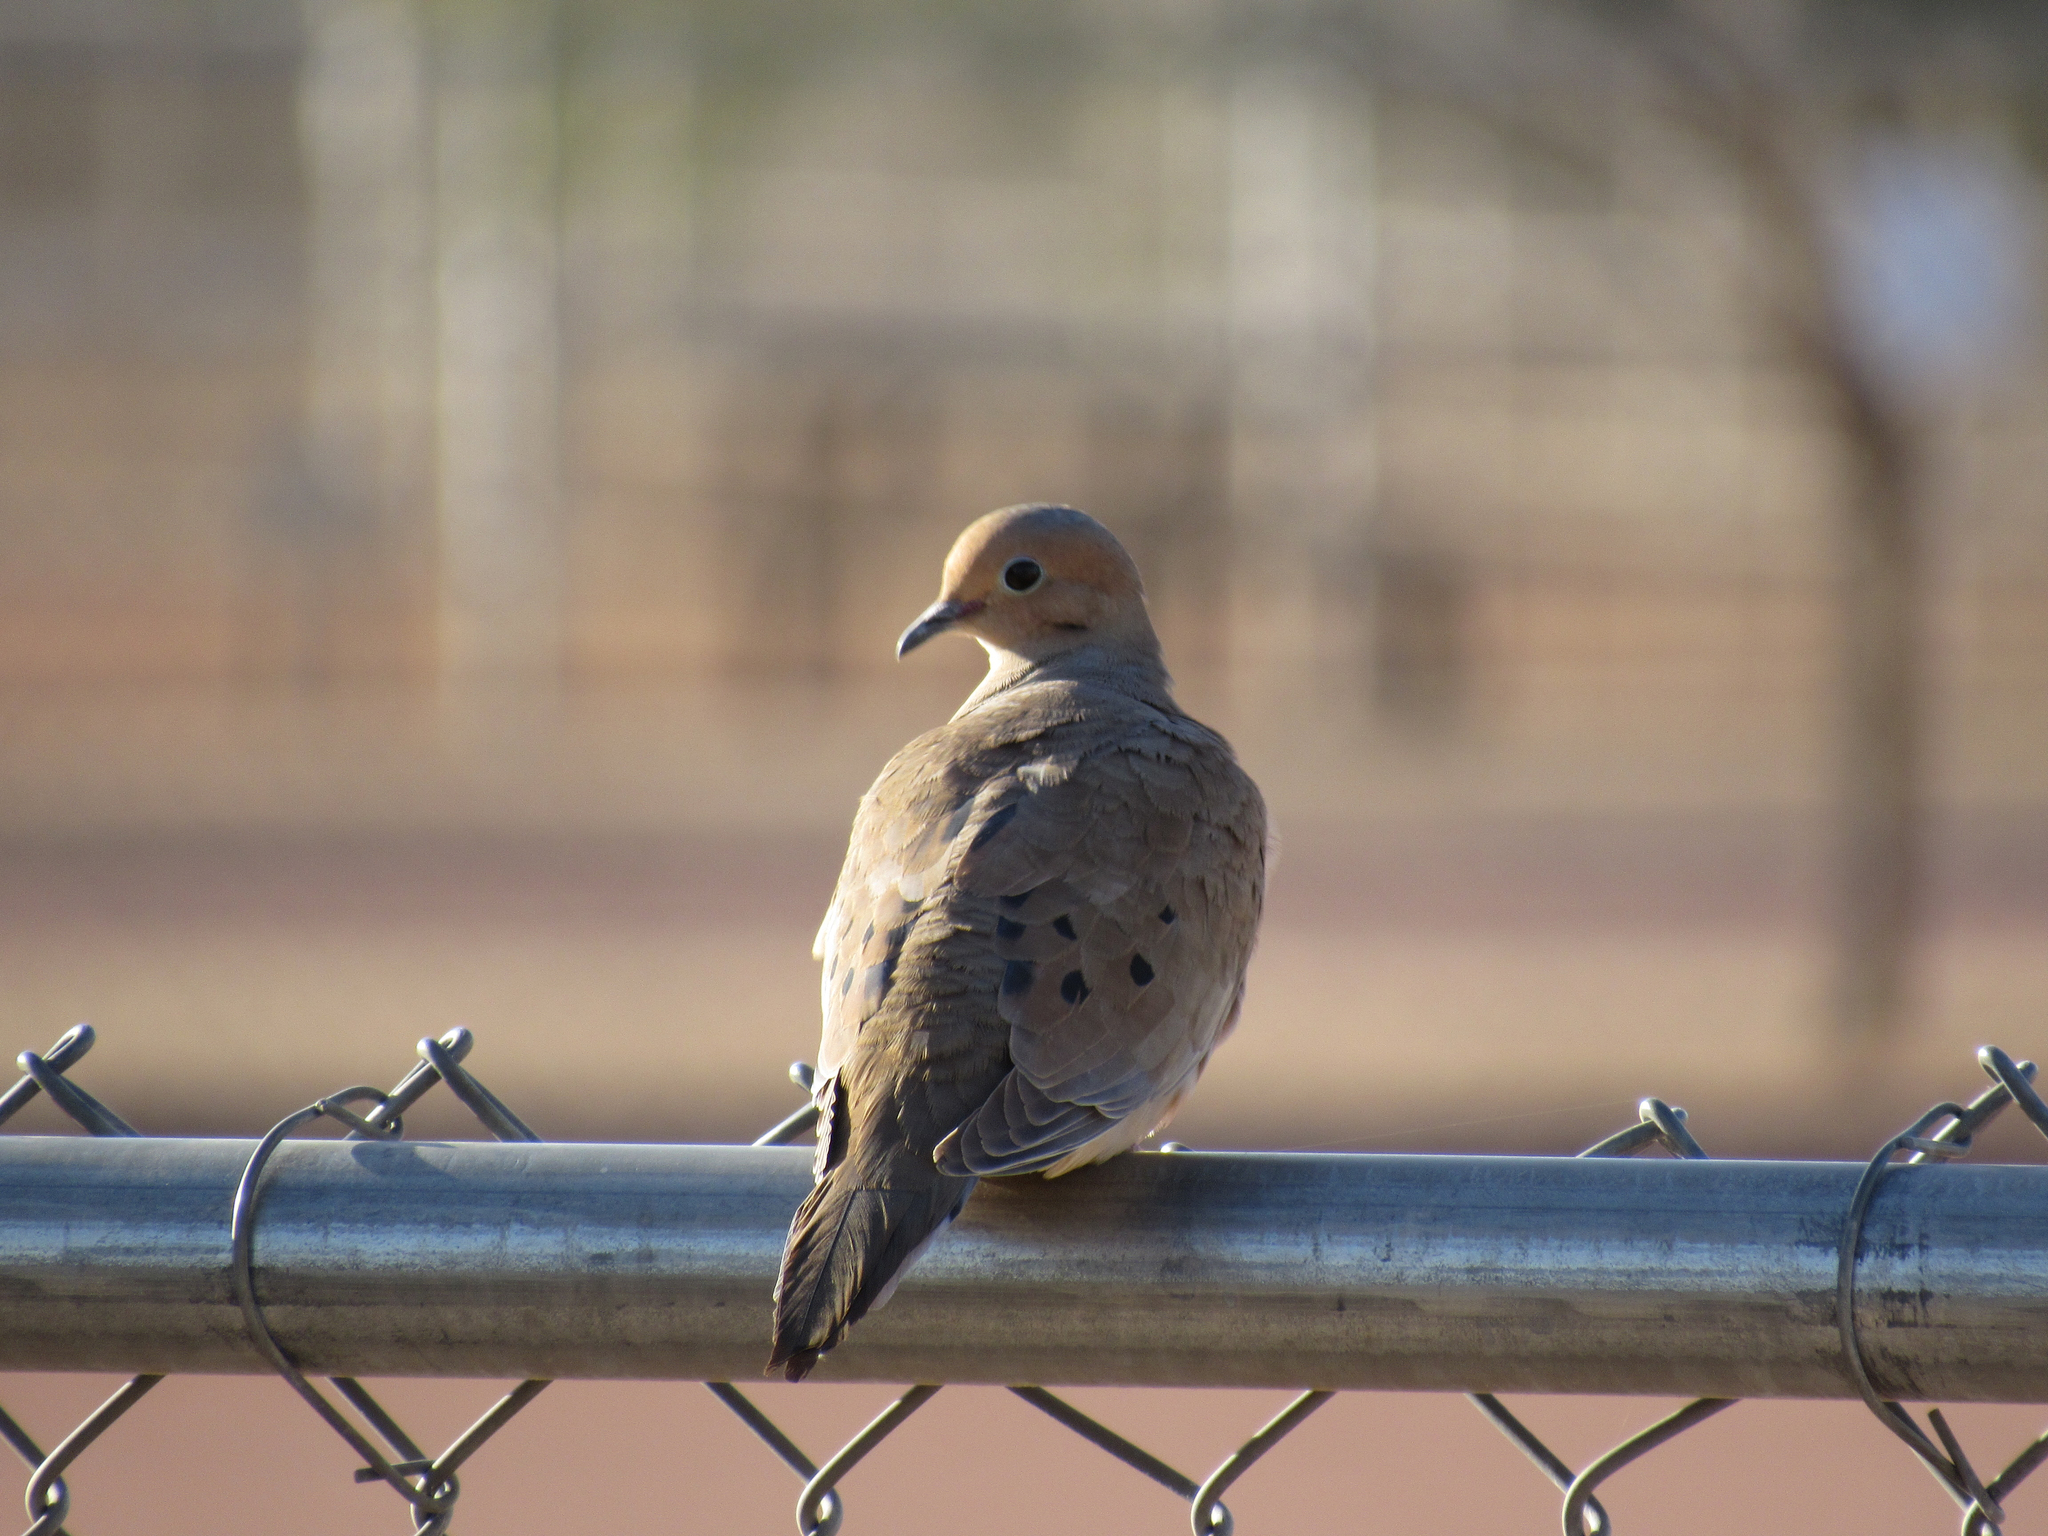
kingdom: Animalia
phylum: Chordata
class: Aves
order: Columbiformes
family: Columbidae
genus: Zenaida
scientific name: Zenaida macroura
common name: Mourning dove
